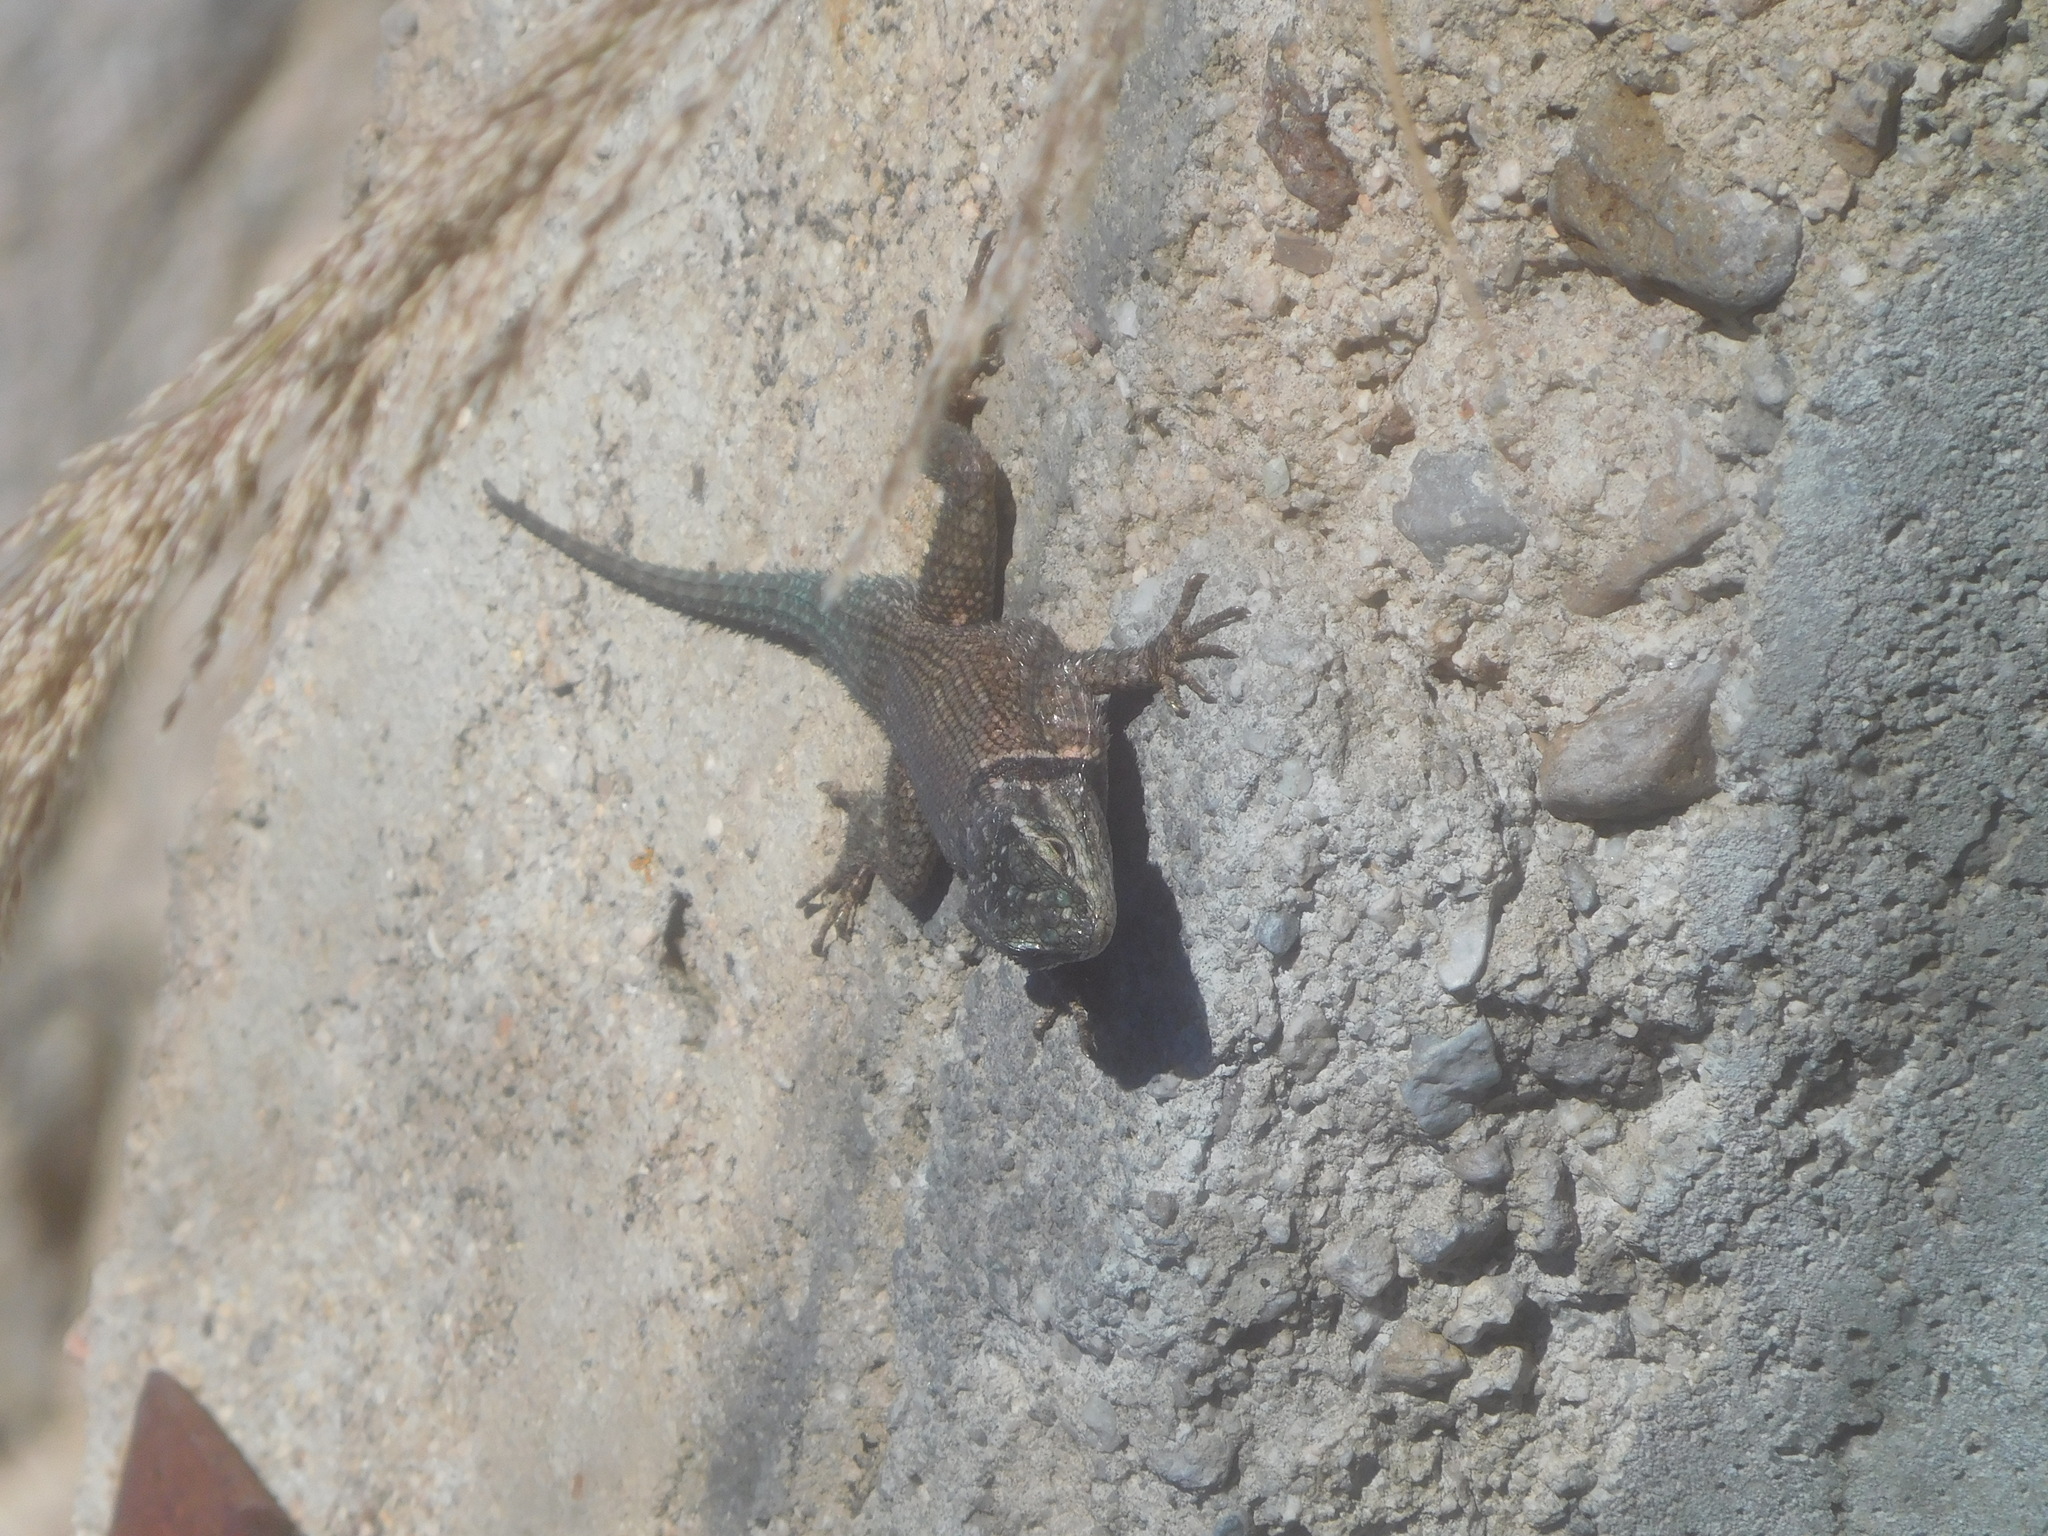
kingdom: Animalia
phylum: Chordata
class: Squamata
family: Phrynosomatidae
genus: Sceloporus
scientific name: Sceloporus jarrovii
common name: Yarrow's spiny lizard
